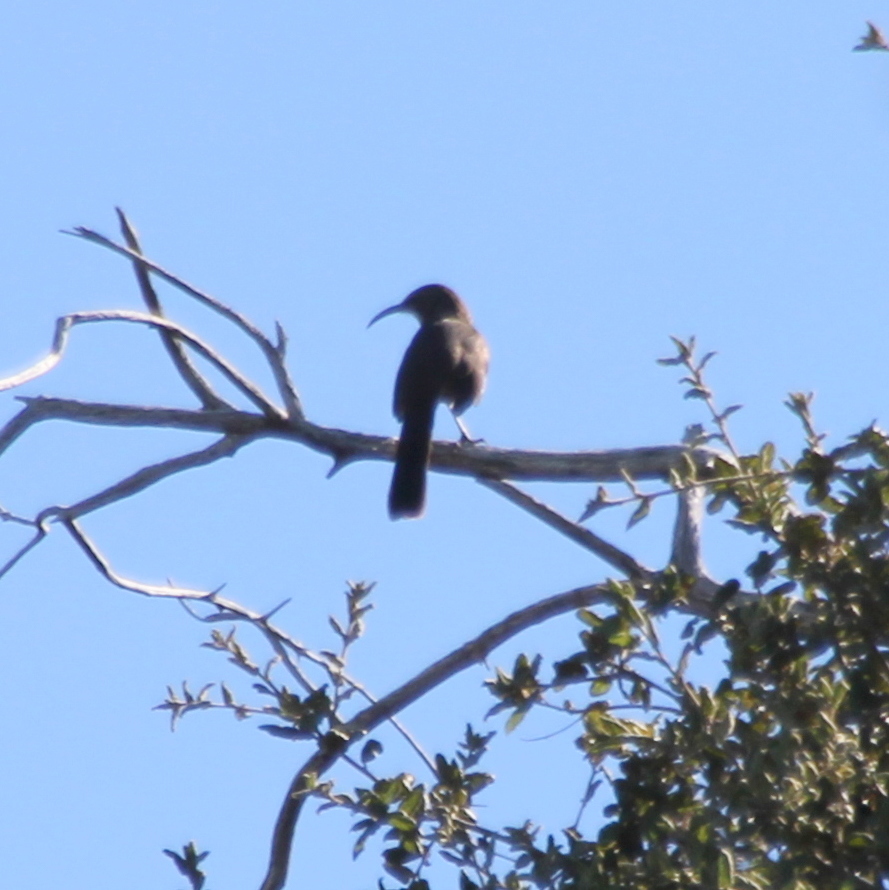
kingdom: Animalia
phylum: Chordata
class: Aves
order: Passeriformes
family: Mimidae
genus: Toxostoma
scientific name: Toxostoma redivivum
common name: California thrasher
